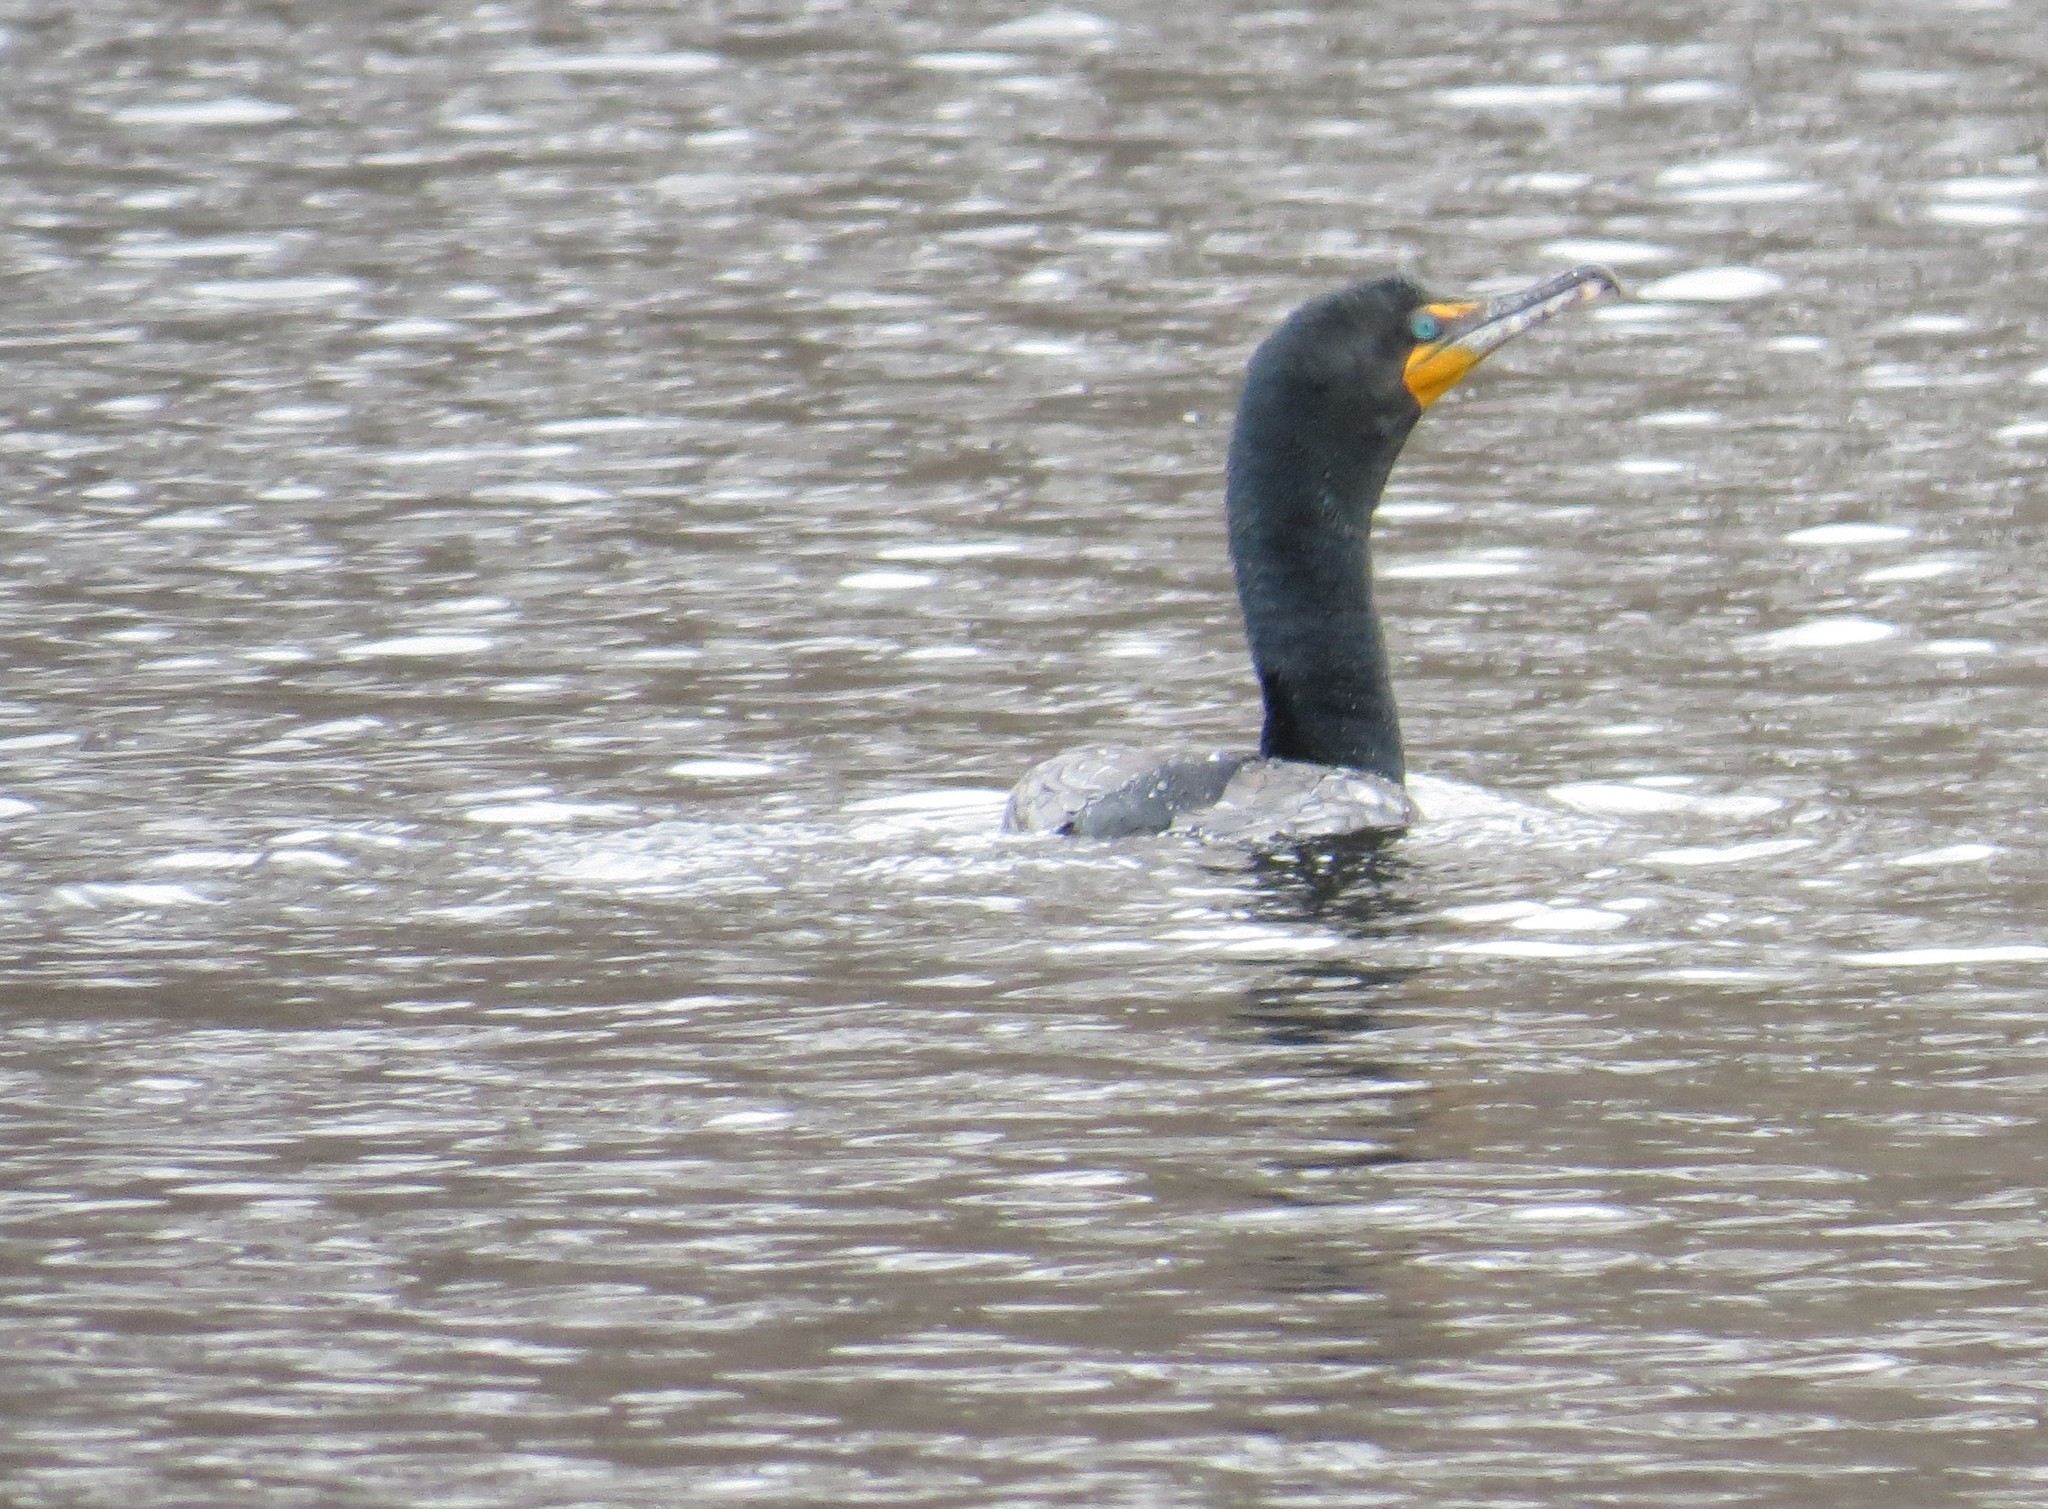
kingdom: Animalia
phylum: Chordata
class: Aves
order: Suliformes
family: Phalacrocoracidae
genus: Phalacrocorax
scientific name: Phalacrocorax auritus
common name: Double-crested cormorant
